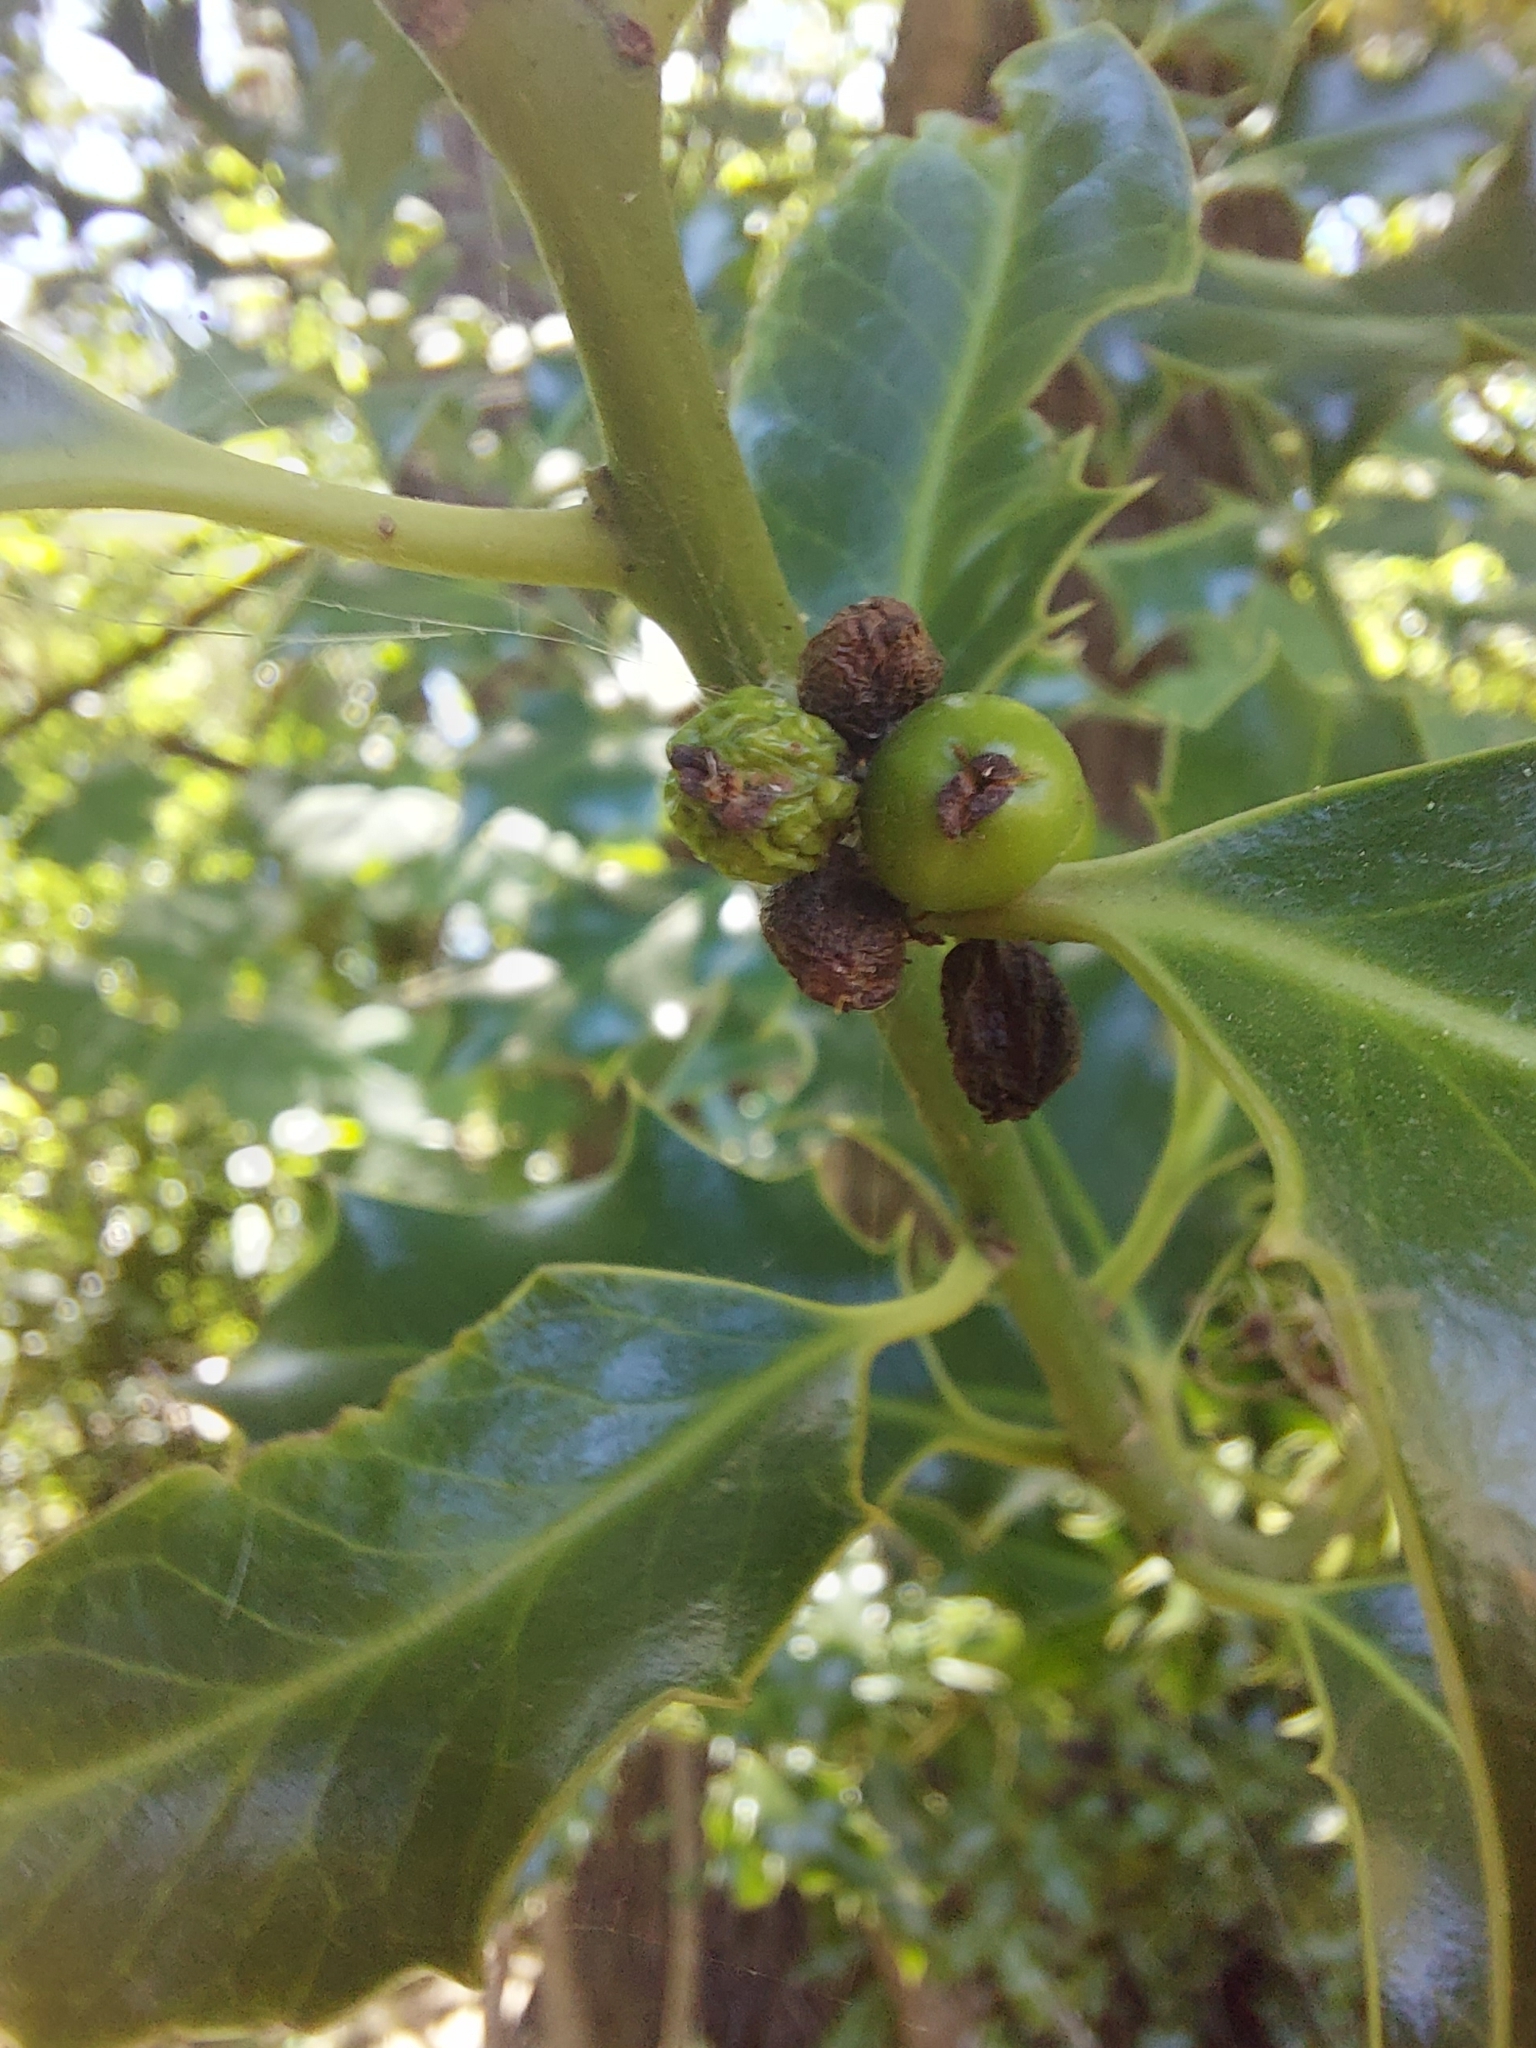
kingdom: Plantae
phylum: Tracheophyta
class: Magnoliopsida
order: Aquifoliales
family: Aquifoliaceae
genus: Ilex
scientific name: Ilex aquifolium
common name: English holly
